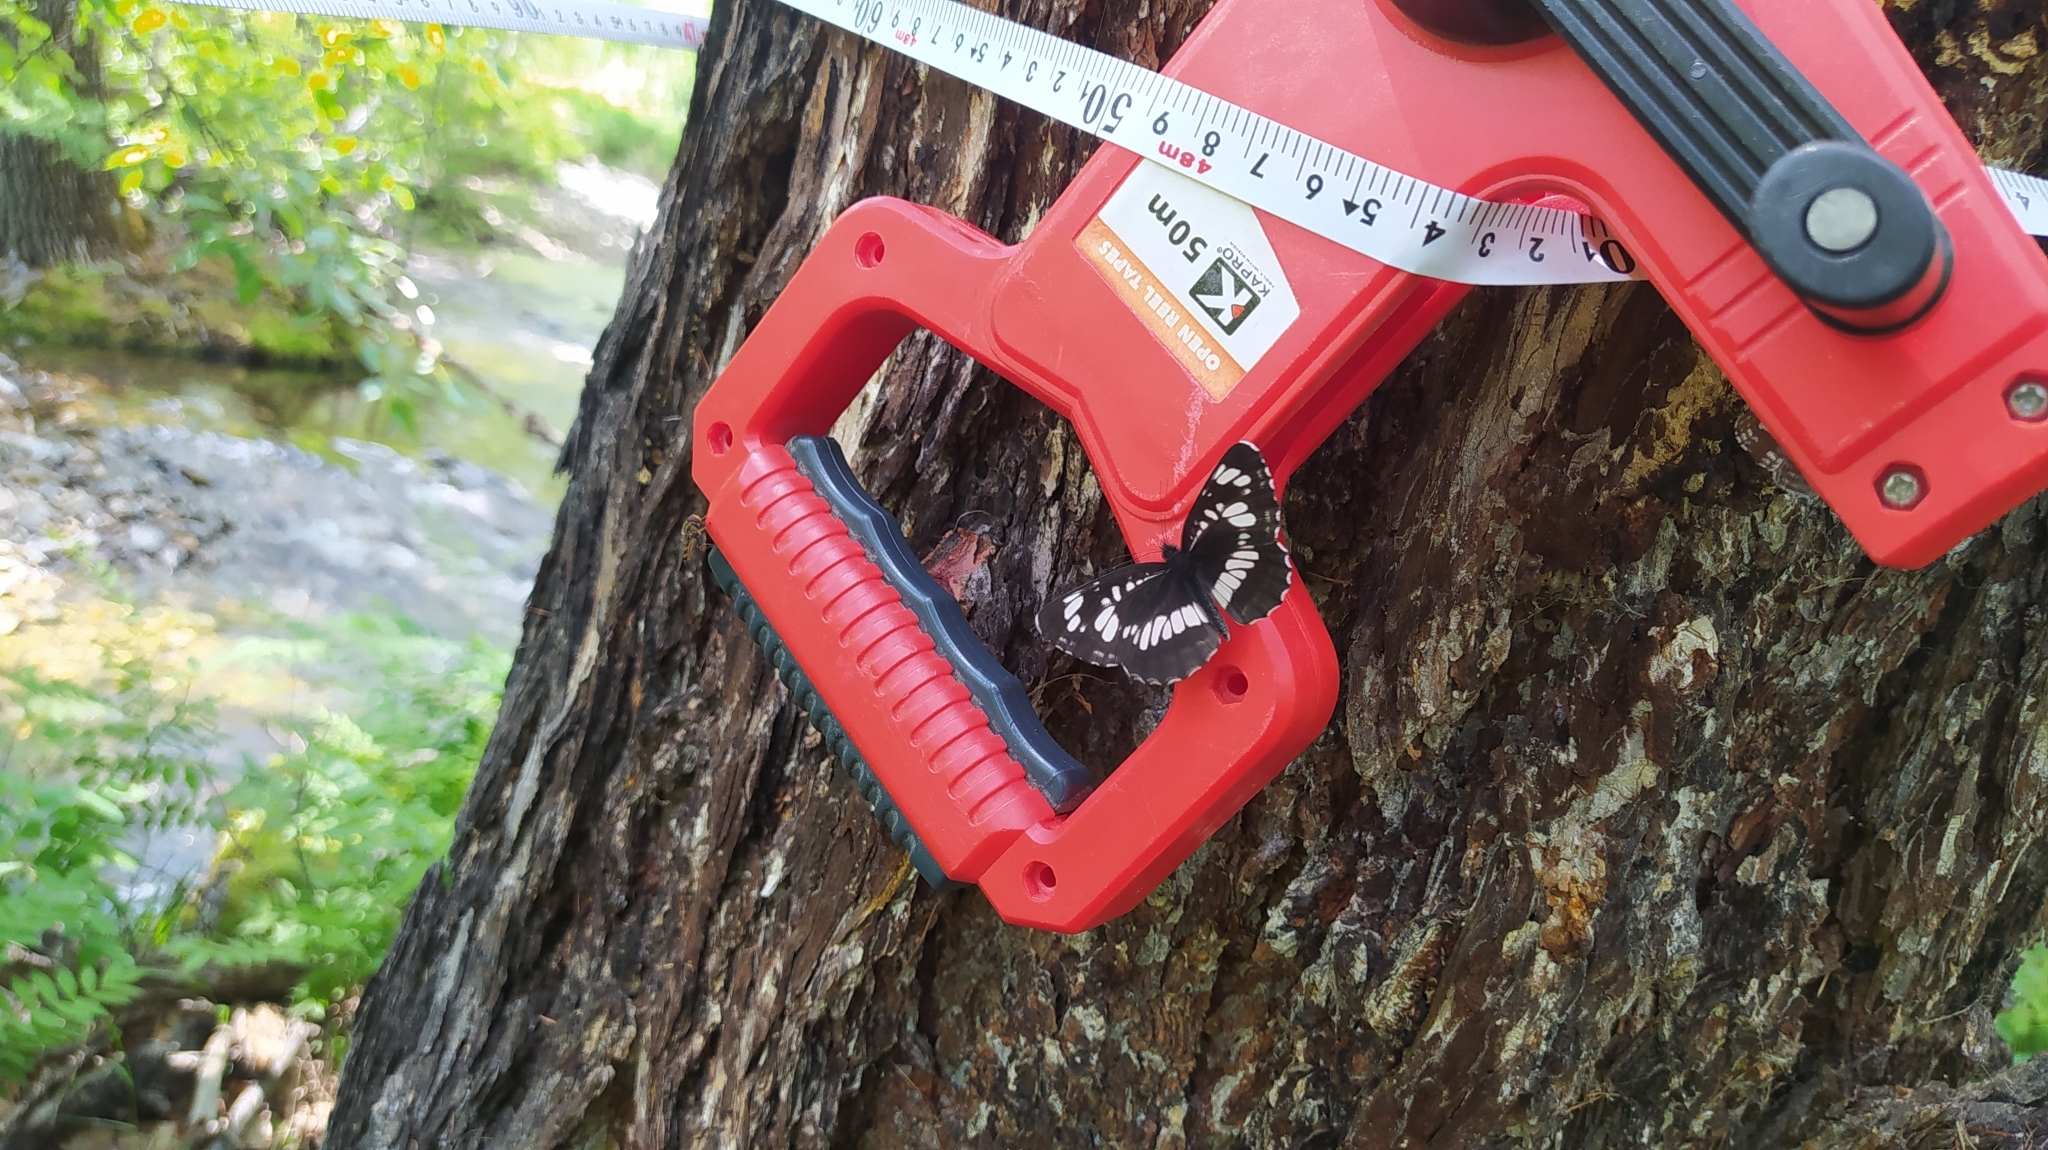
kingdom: Animalia
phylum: Arthropoda
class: Insecta
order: Lepidoptera
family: Nymphalidae
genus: Neptis
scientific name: Neptis rivularis
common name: Hungarian glider
